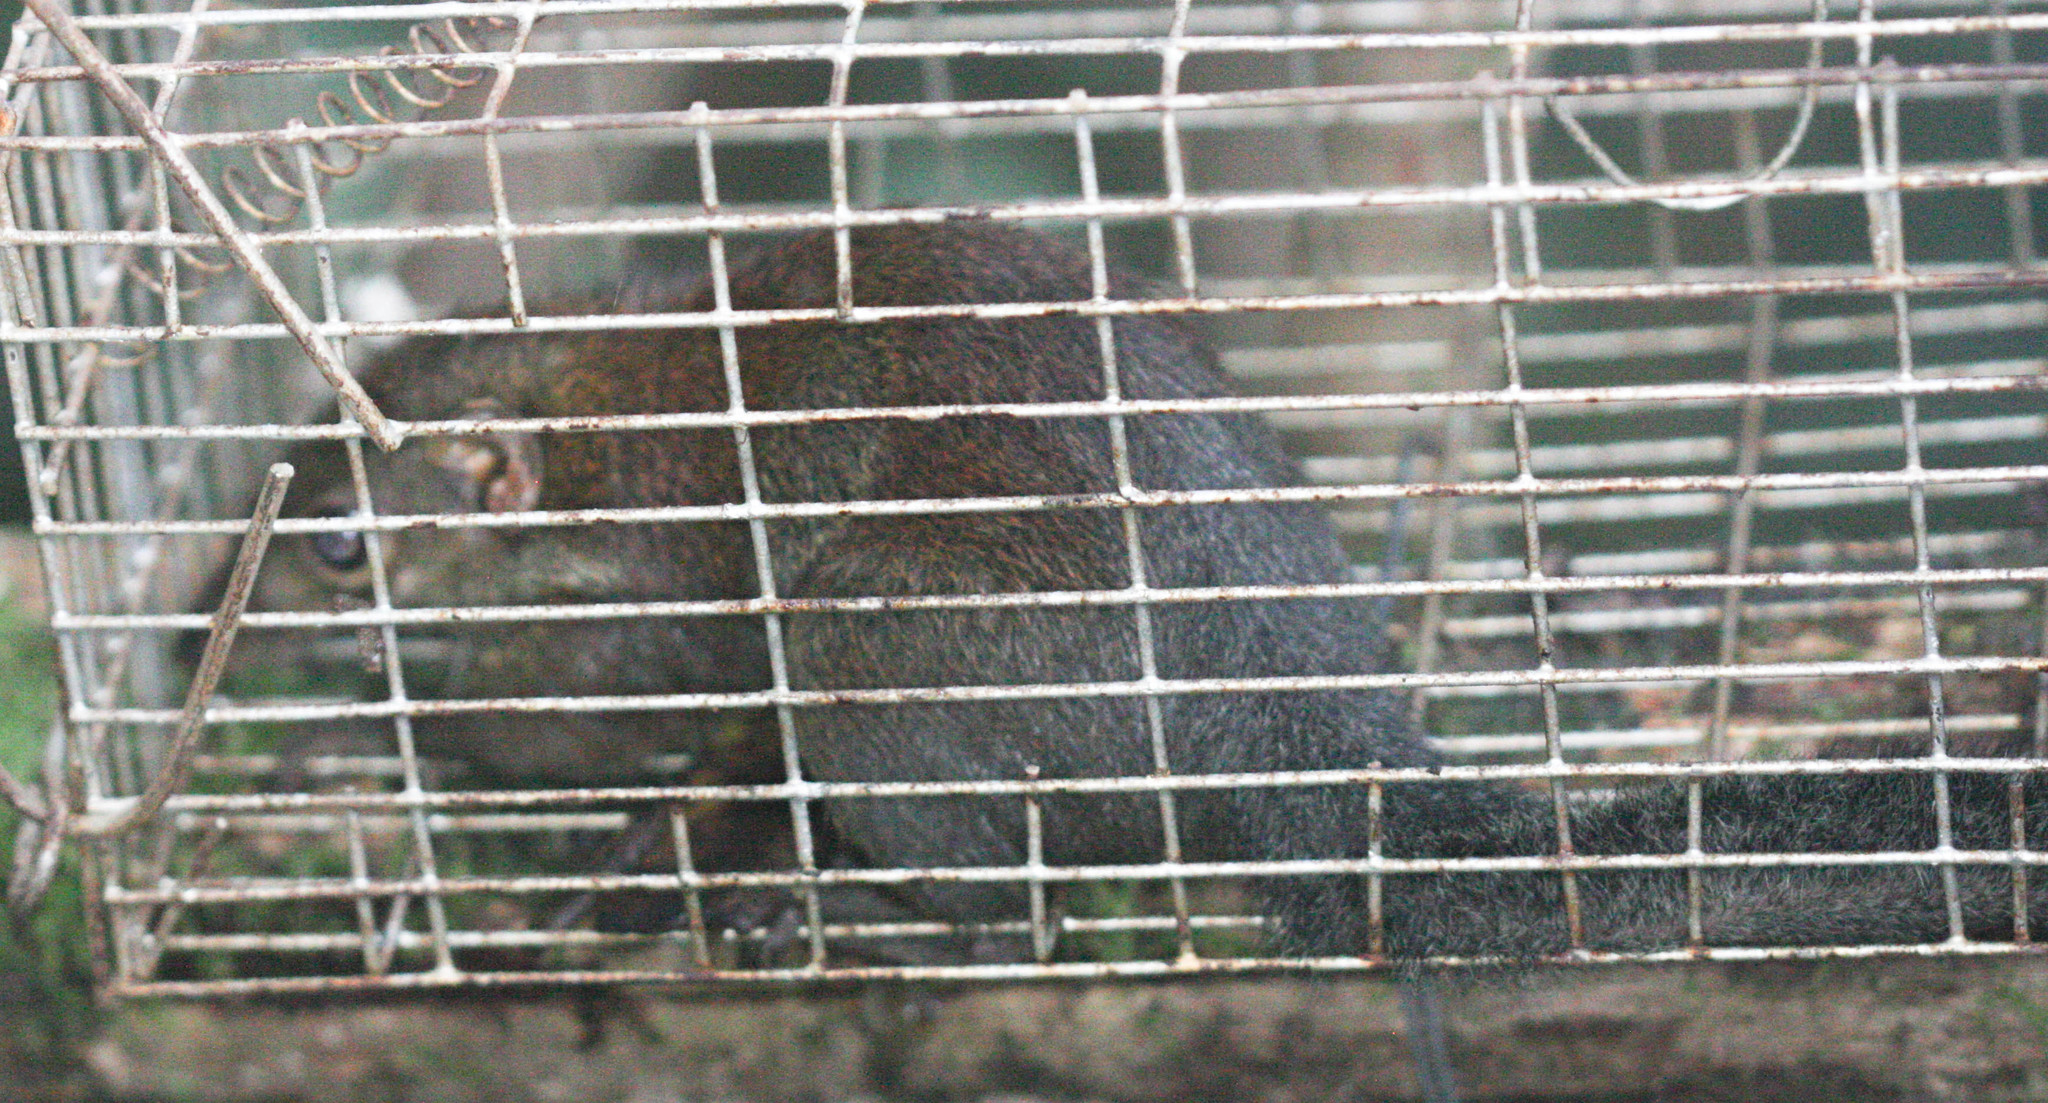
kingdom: Animalia
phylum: Chordata
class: Mammalia
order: Scandentia
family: Tupaiidae
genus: Tupaia
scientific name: Tupaia glis
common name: Common treeshrew
